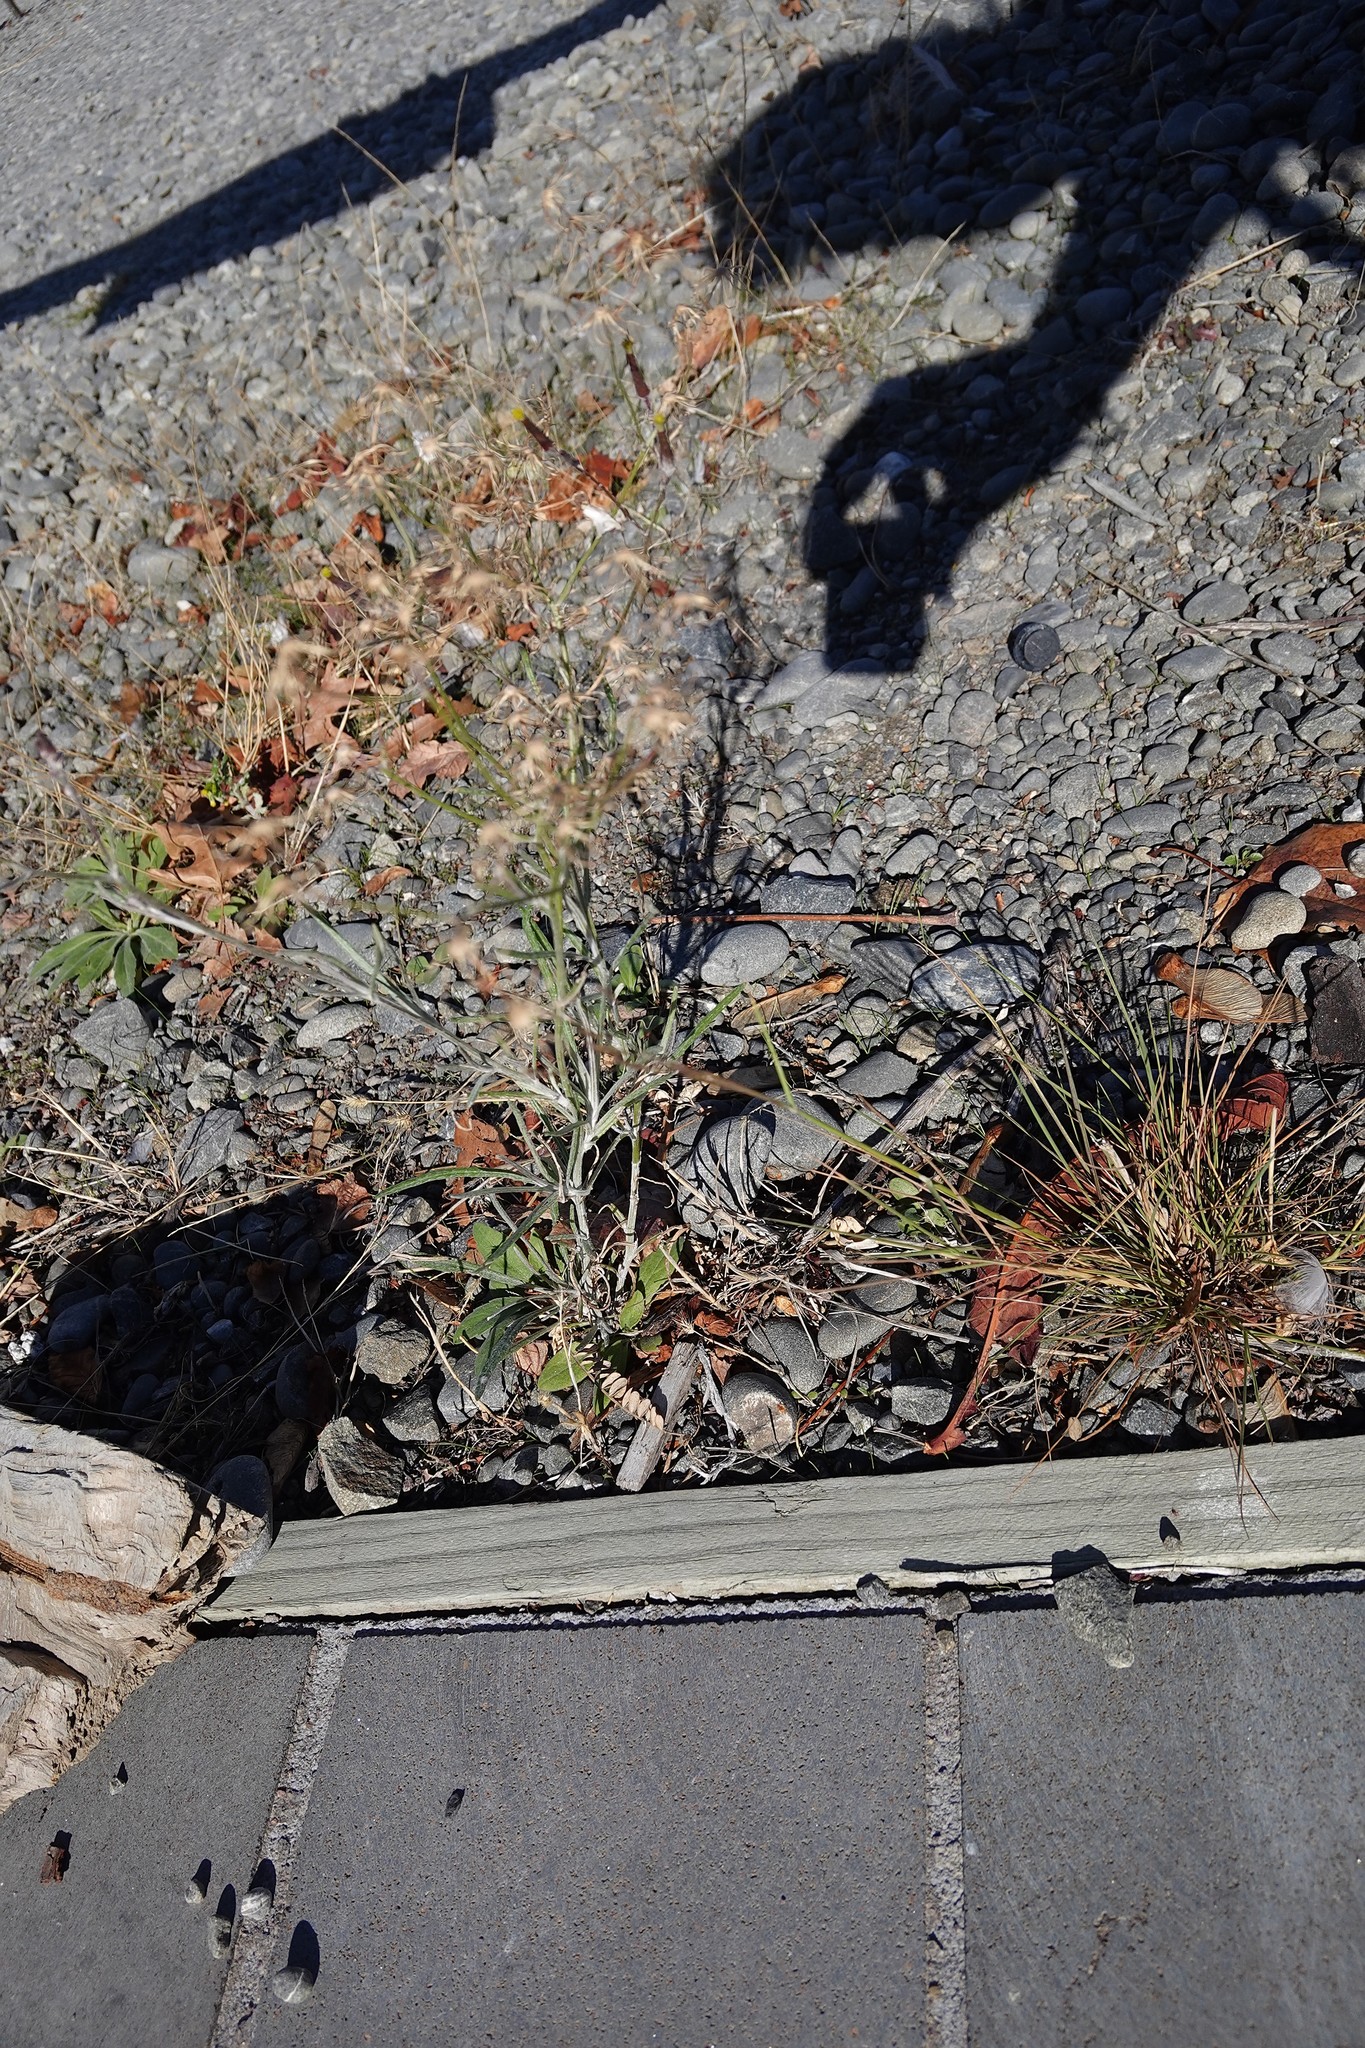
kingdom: Plantae
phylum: Tracheophyta
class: Magnoliopsida
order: Asterales
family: Asteraceae
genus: Senecio
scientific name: Senecio quadridentatus
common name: Cotton fireweed
